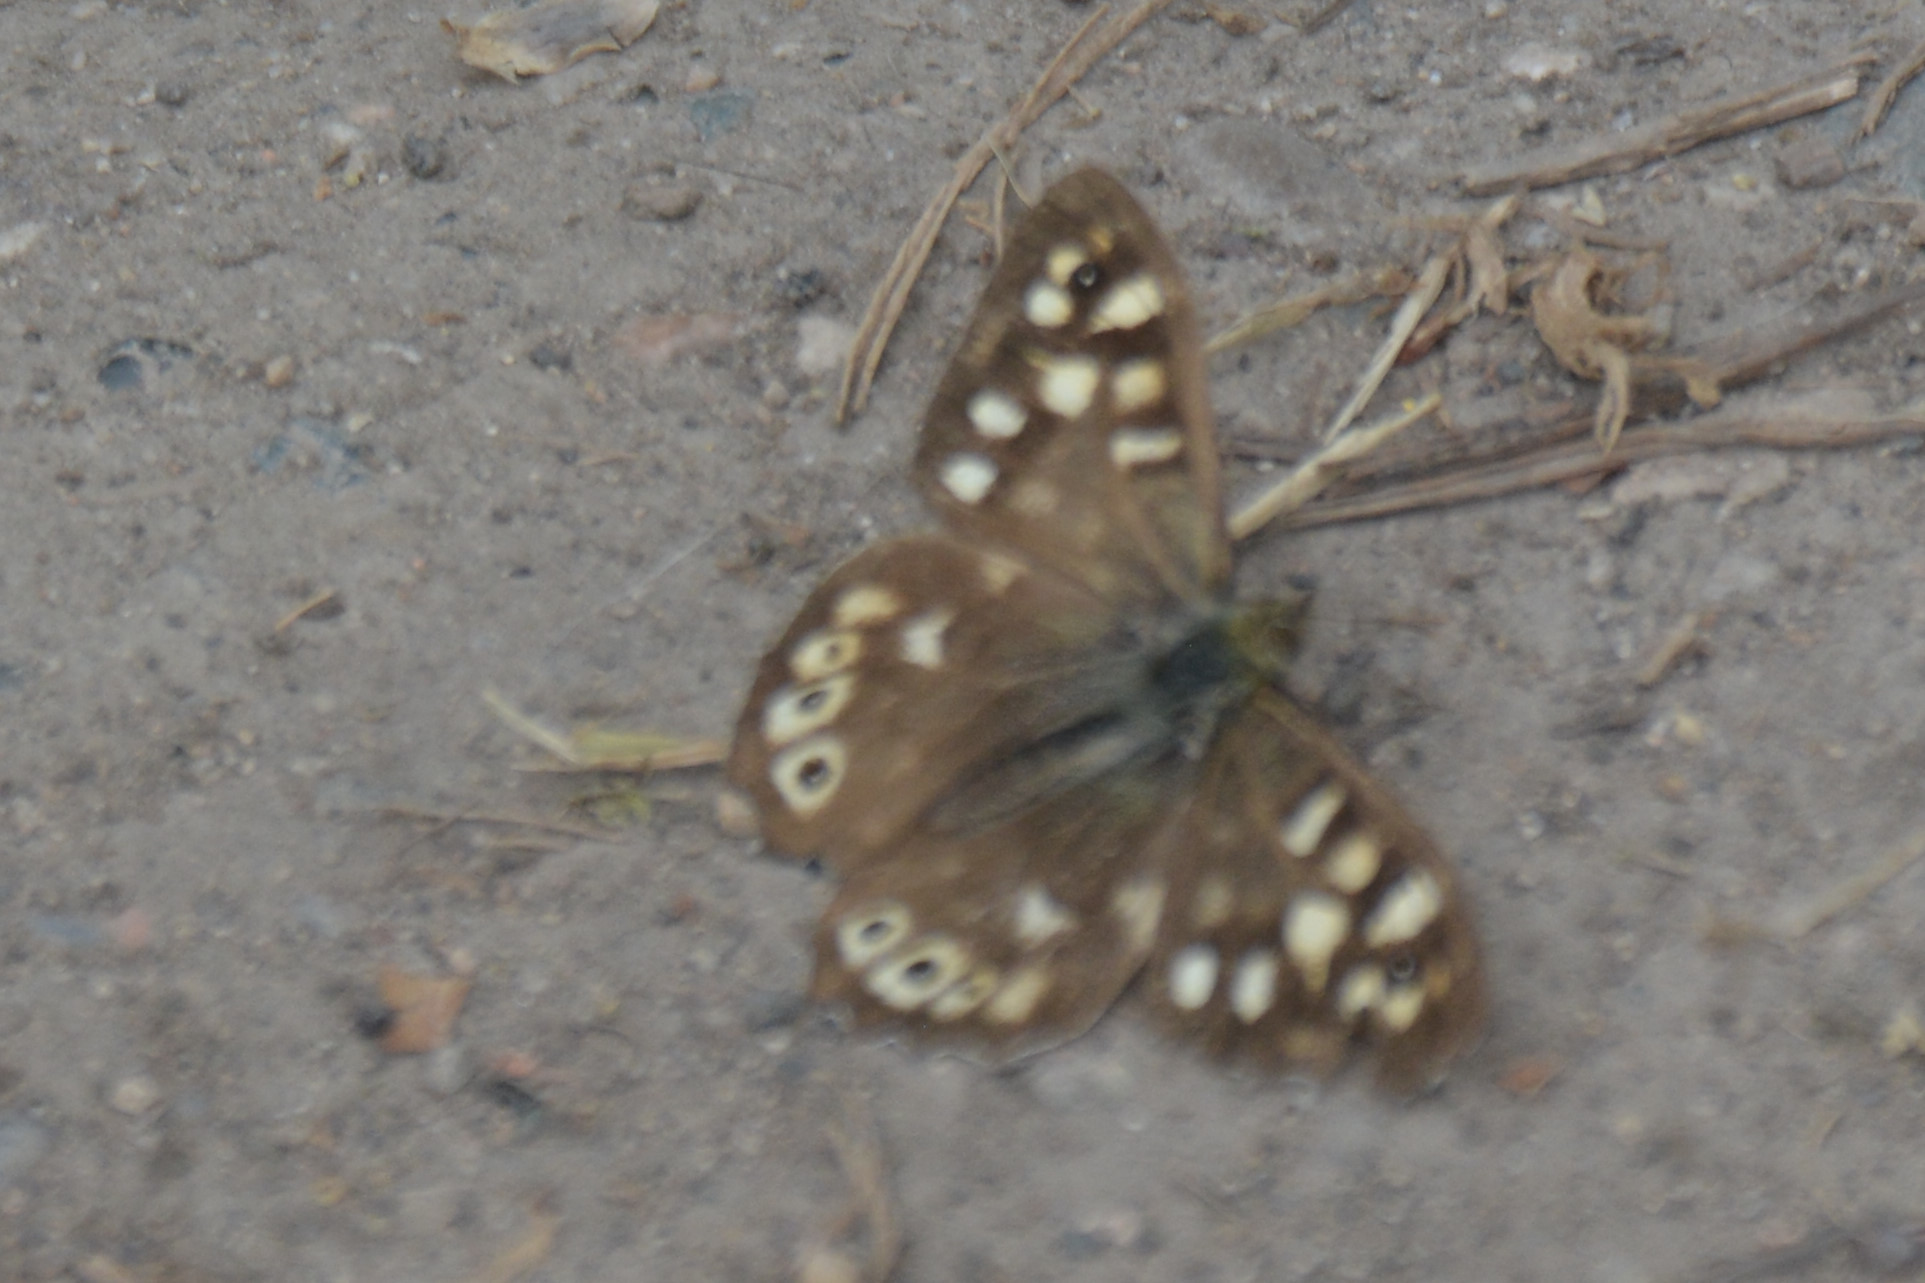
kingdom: Animalia
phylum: Arthropoda
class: Insecta
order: Lepidoptera
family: Nymphalidae
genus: Pararge
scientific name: Pararge aegeria
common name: Speckled wood
